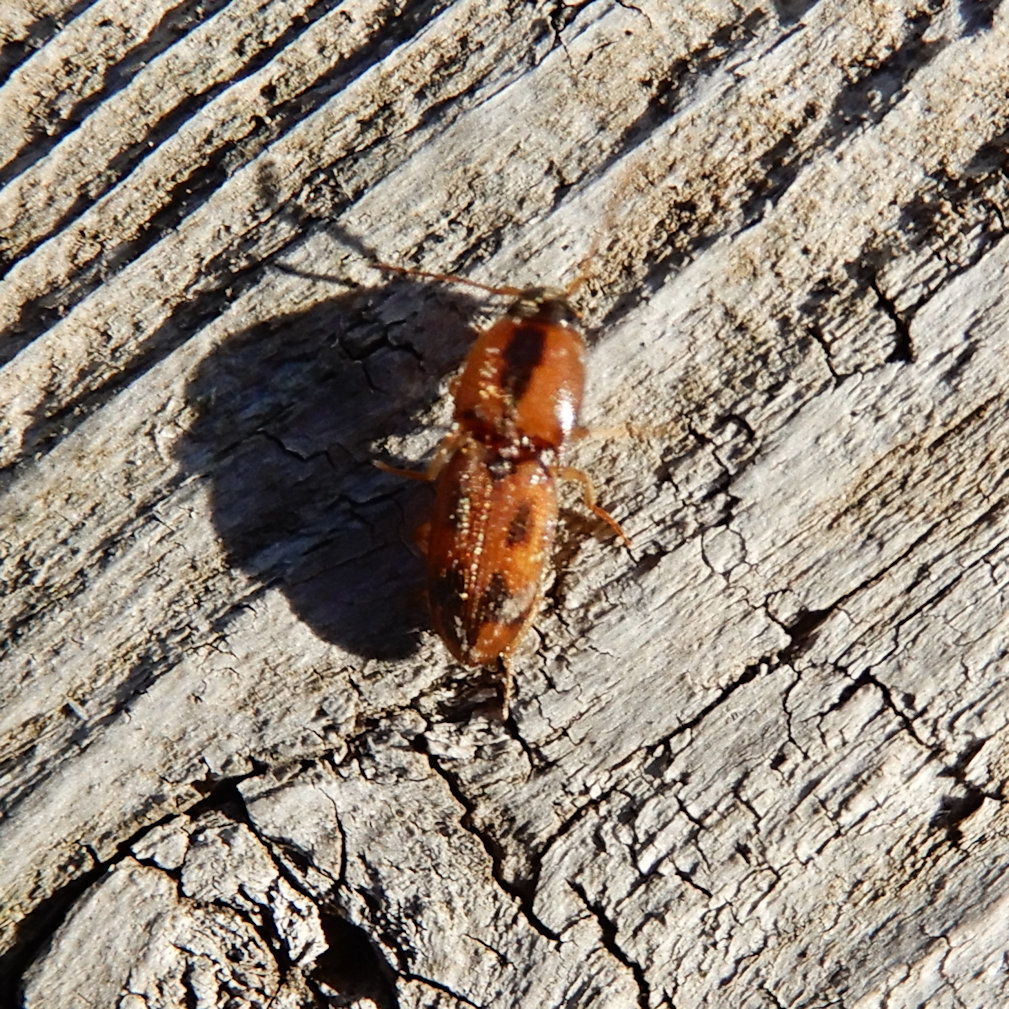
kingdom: Animalia
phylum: Arthropoda
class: Insecta
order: Coleoptera
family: Elateridae
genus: Aeolus
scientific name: Aeolus mellillus
